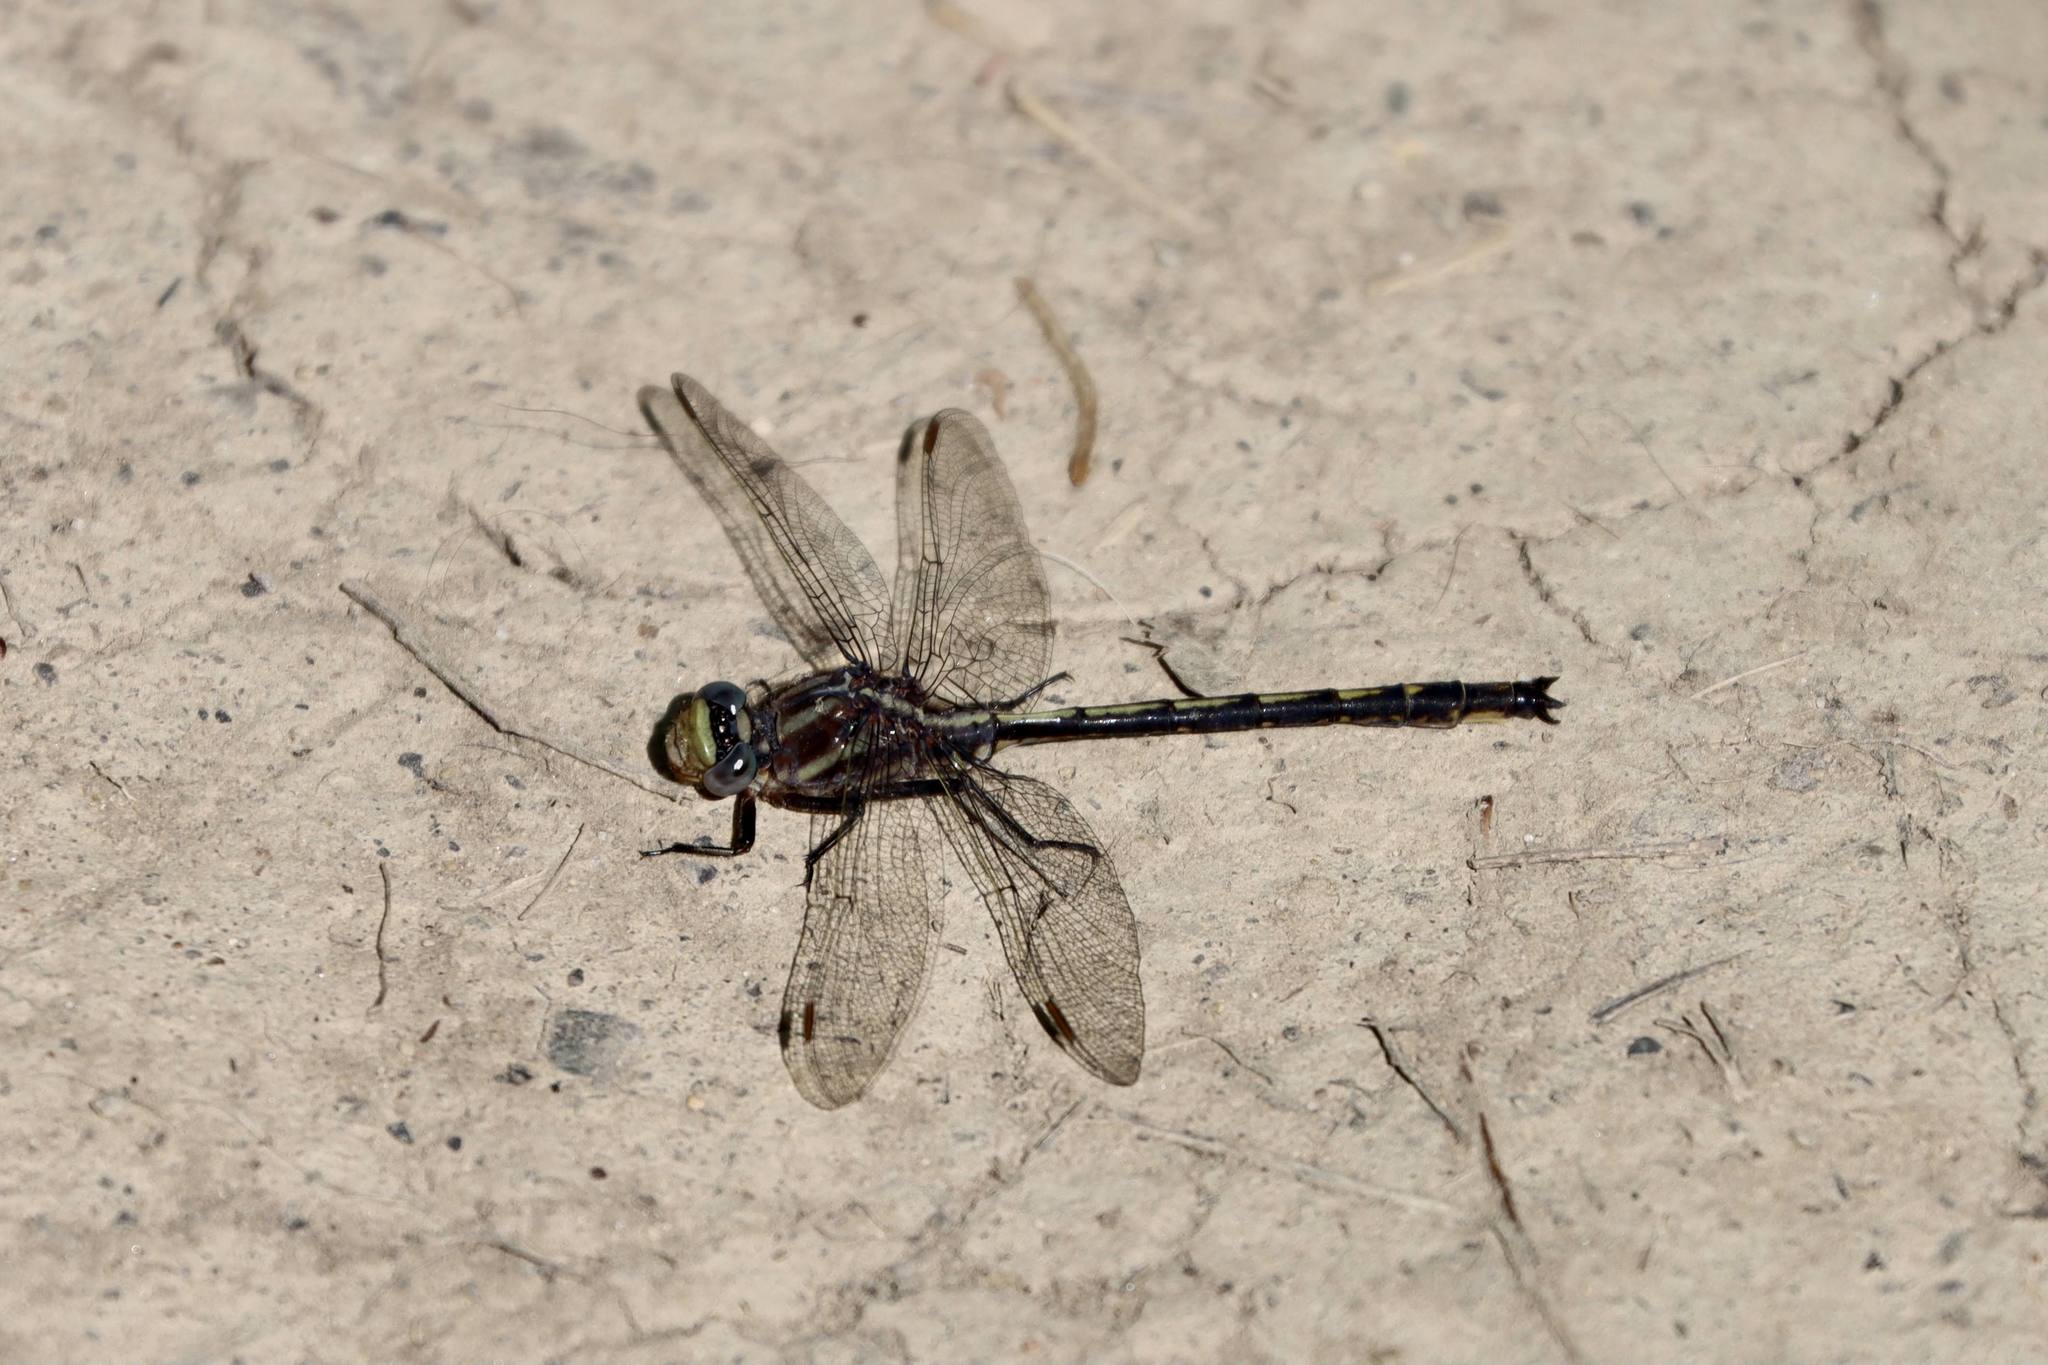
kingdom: Animalia
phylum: Arthropoda
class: Insecta
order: Odonata
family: Gomphidae
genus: Phanogomphus
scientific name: Phanogomphus spicatus
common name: Dusky clubtail
